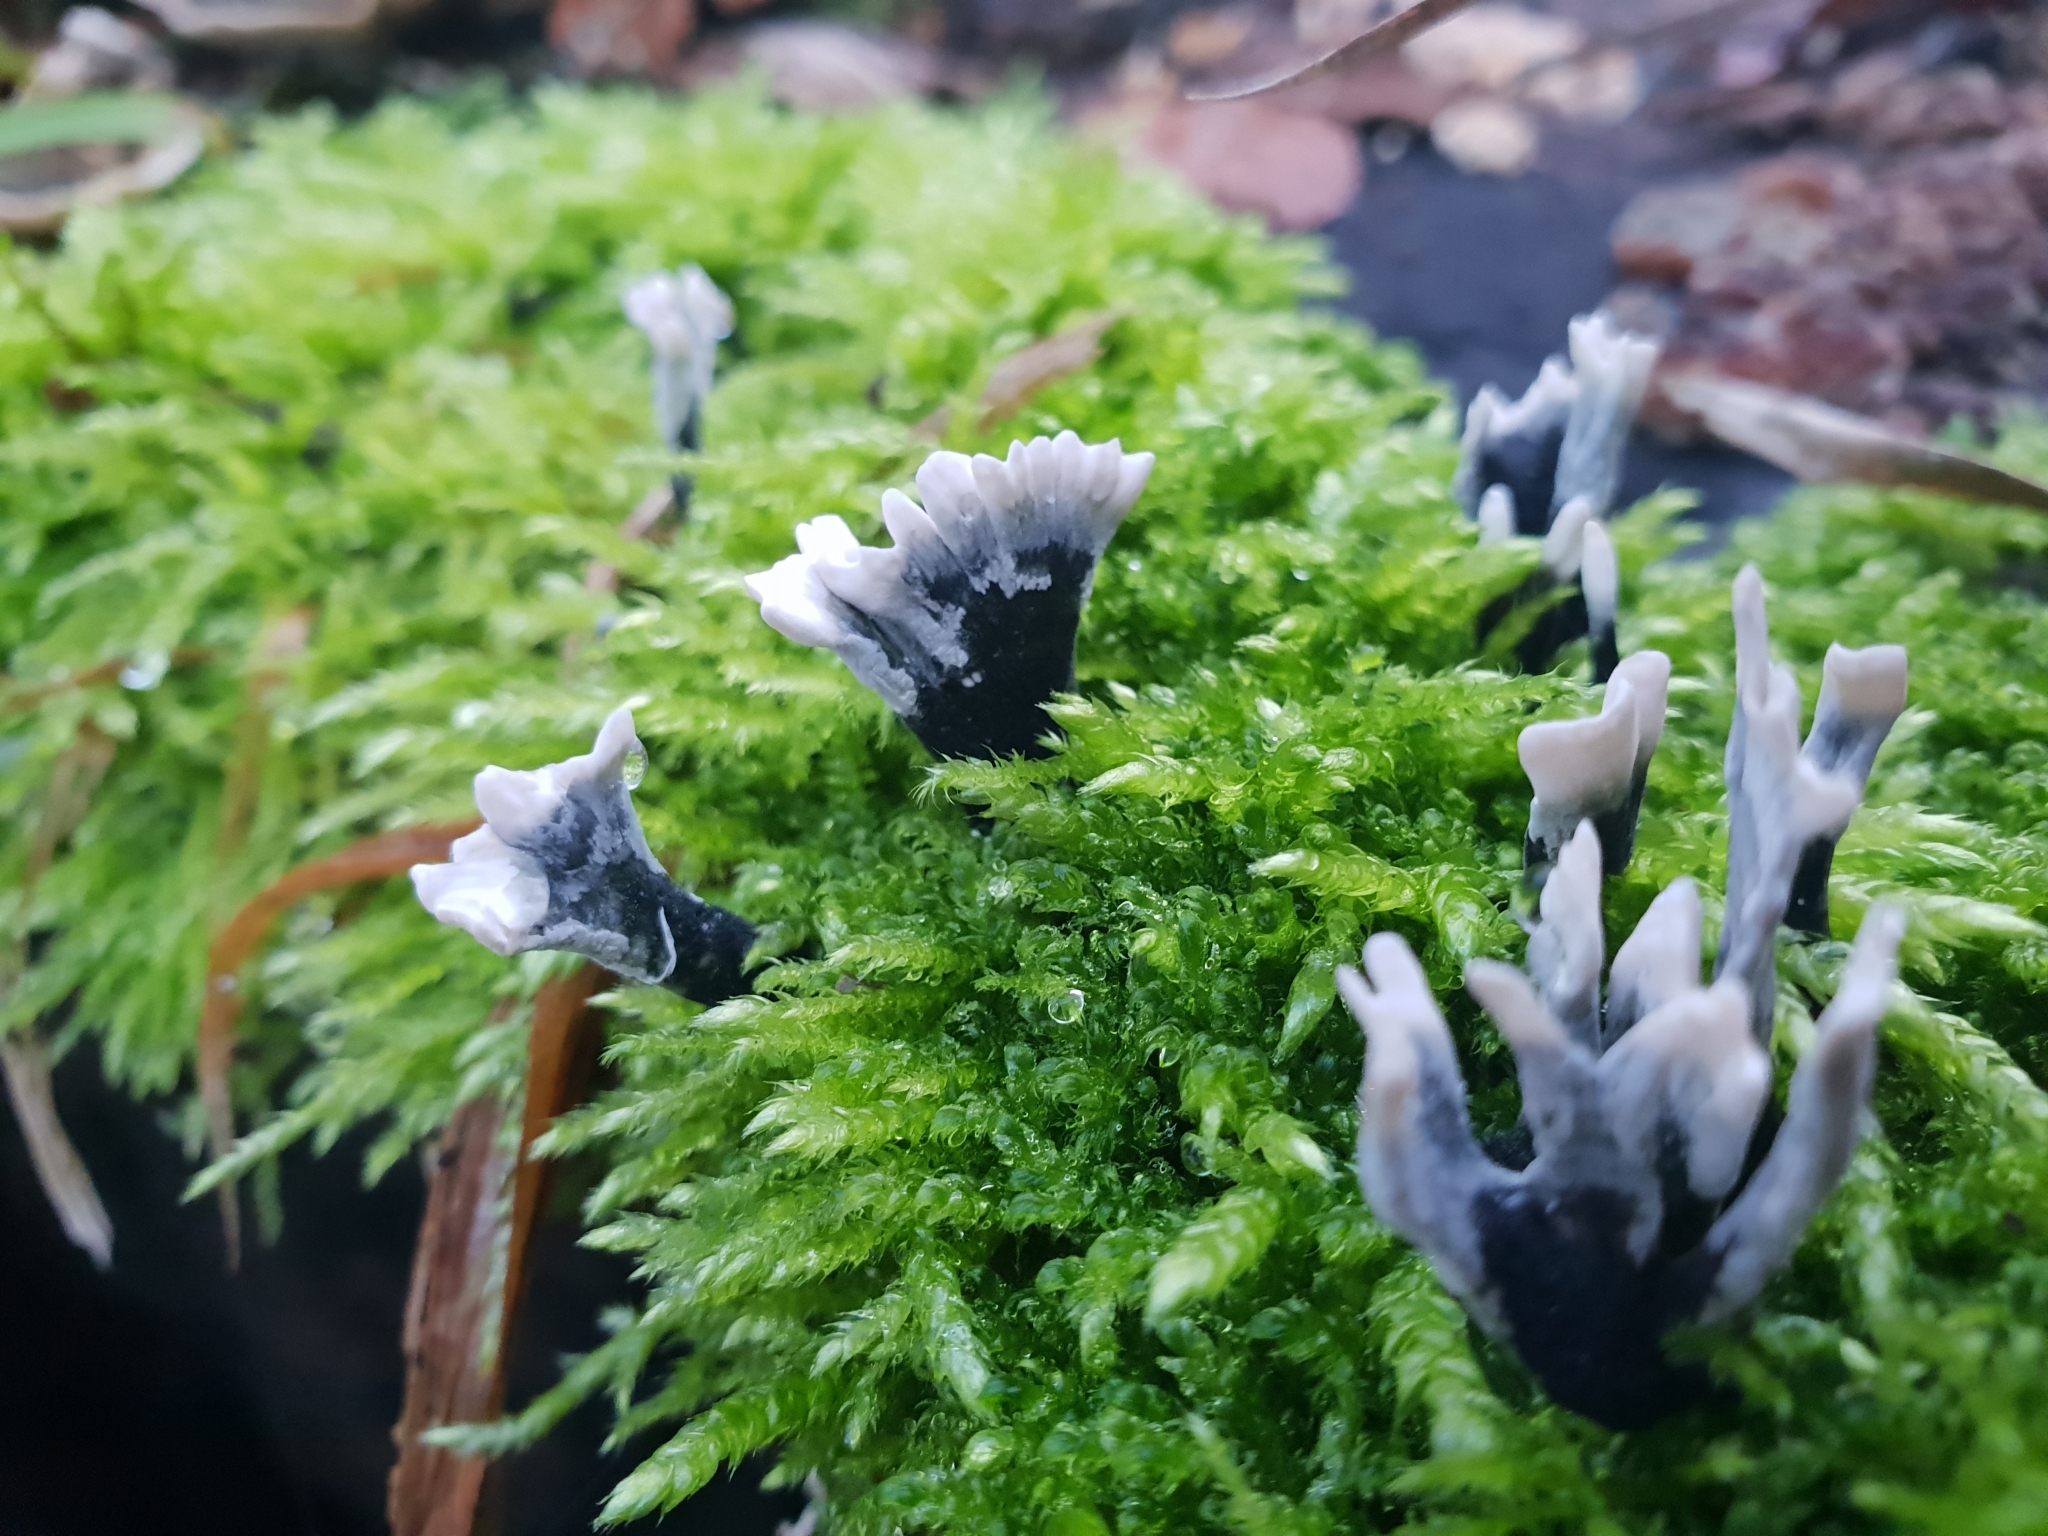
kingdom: Fungi
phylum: Ascomycota
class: Sordariomycetes
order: Xylariales
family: Xylariaceae
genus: Xylaria
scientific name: Xylaria hypoxylon
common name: Candle-snuff fungus
